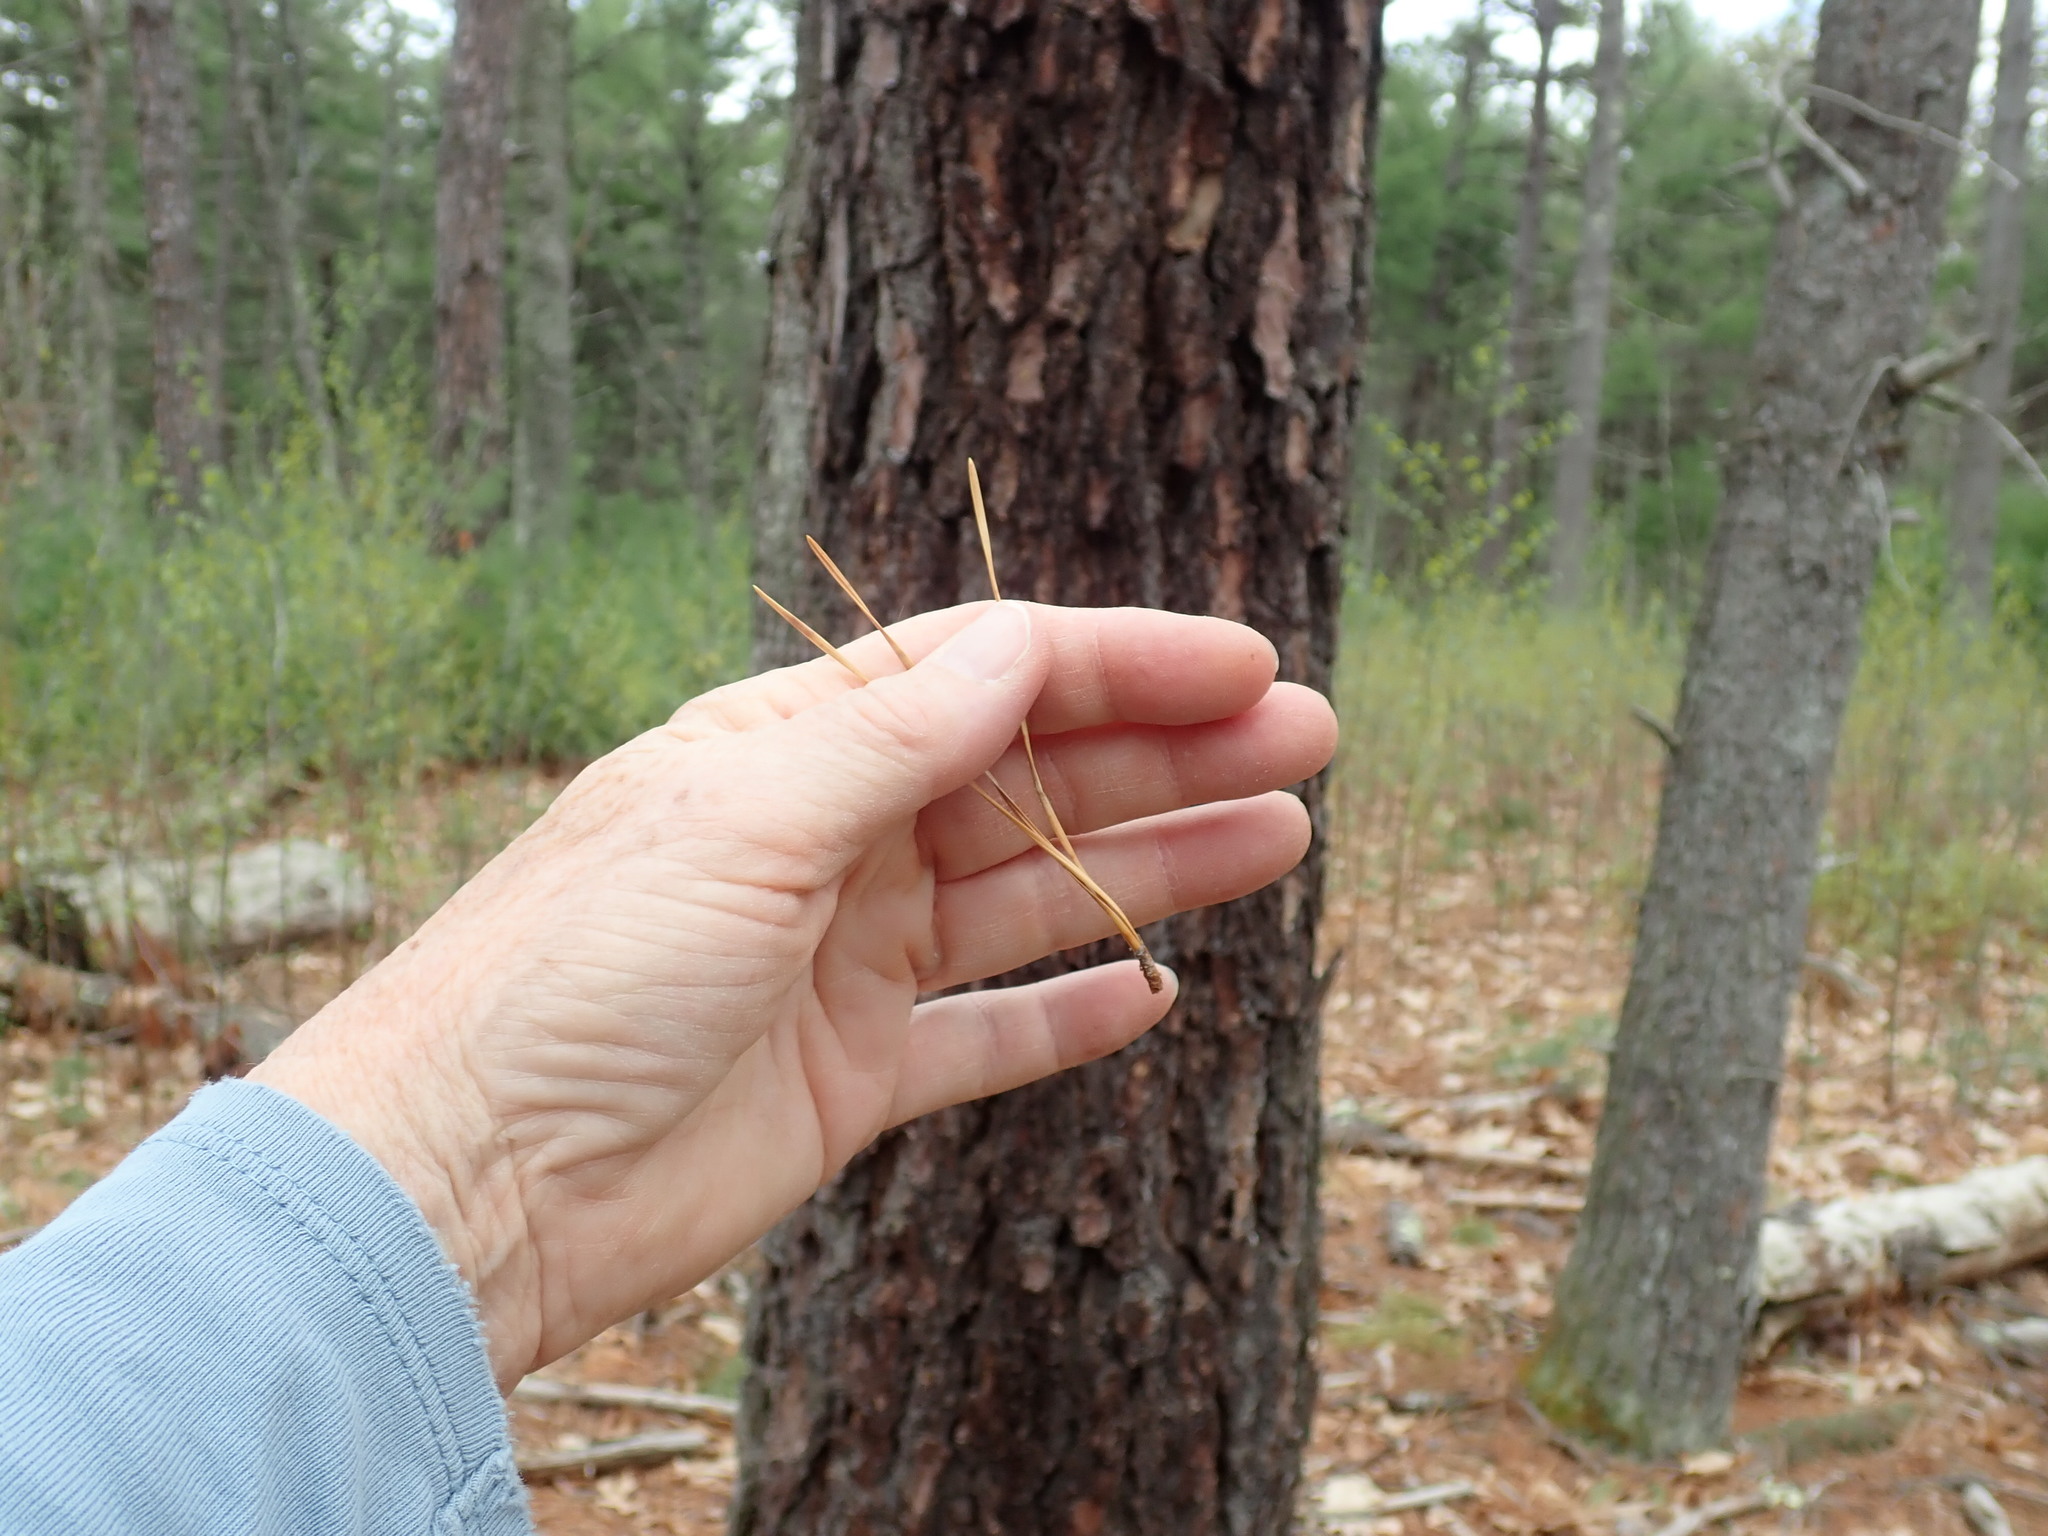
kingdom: Plantae
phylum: Tracheophyta
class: Pinopsida
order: Pinales
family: Pinaceae
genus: Pinus
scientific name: Pinus rigida
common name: Pitch pine
